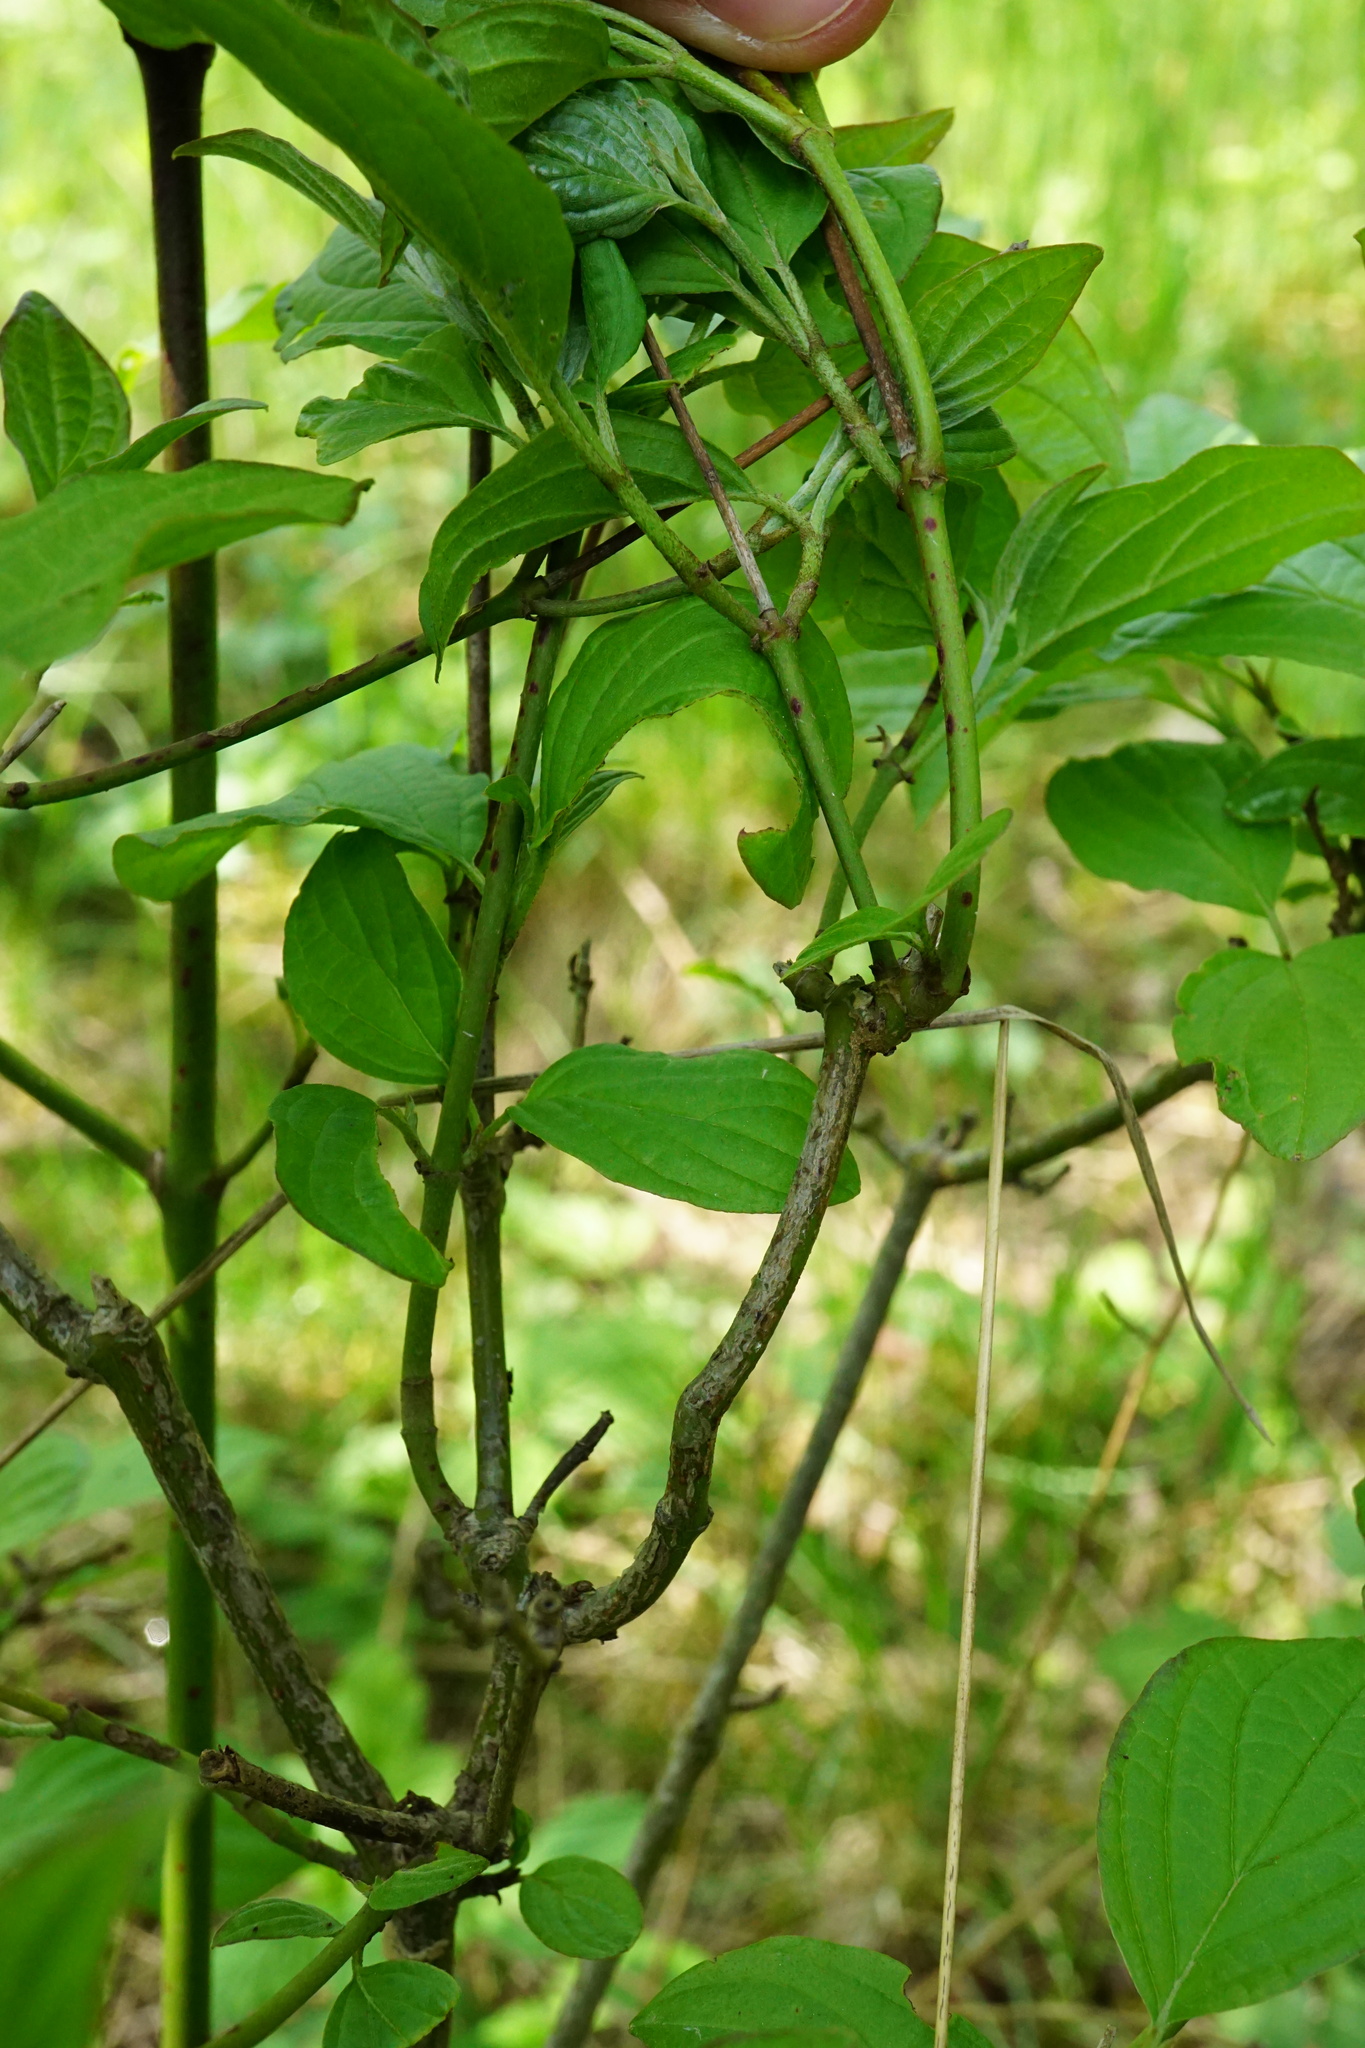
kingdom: Plantae
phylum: Tracheophyta
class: Magnoliopsida
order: Cornales
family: Cornaceae
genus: Cornus
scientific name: Cornus sanguinea
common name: Dogwood
